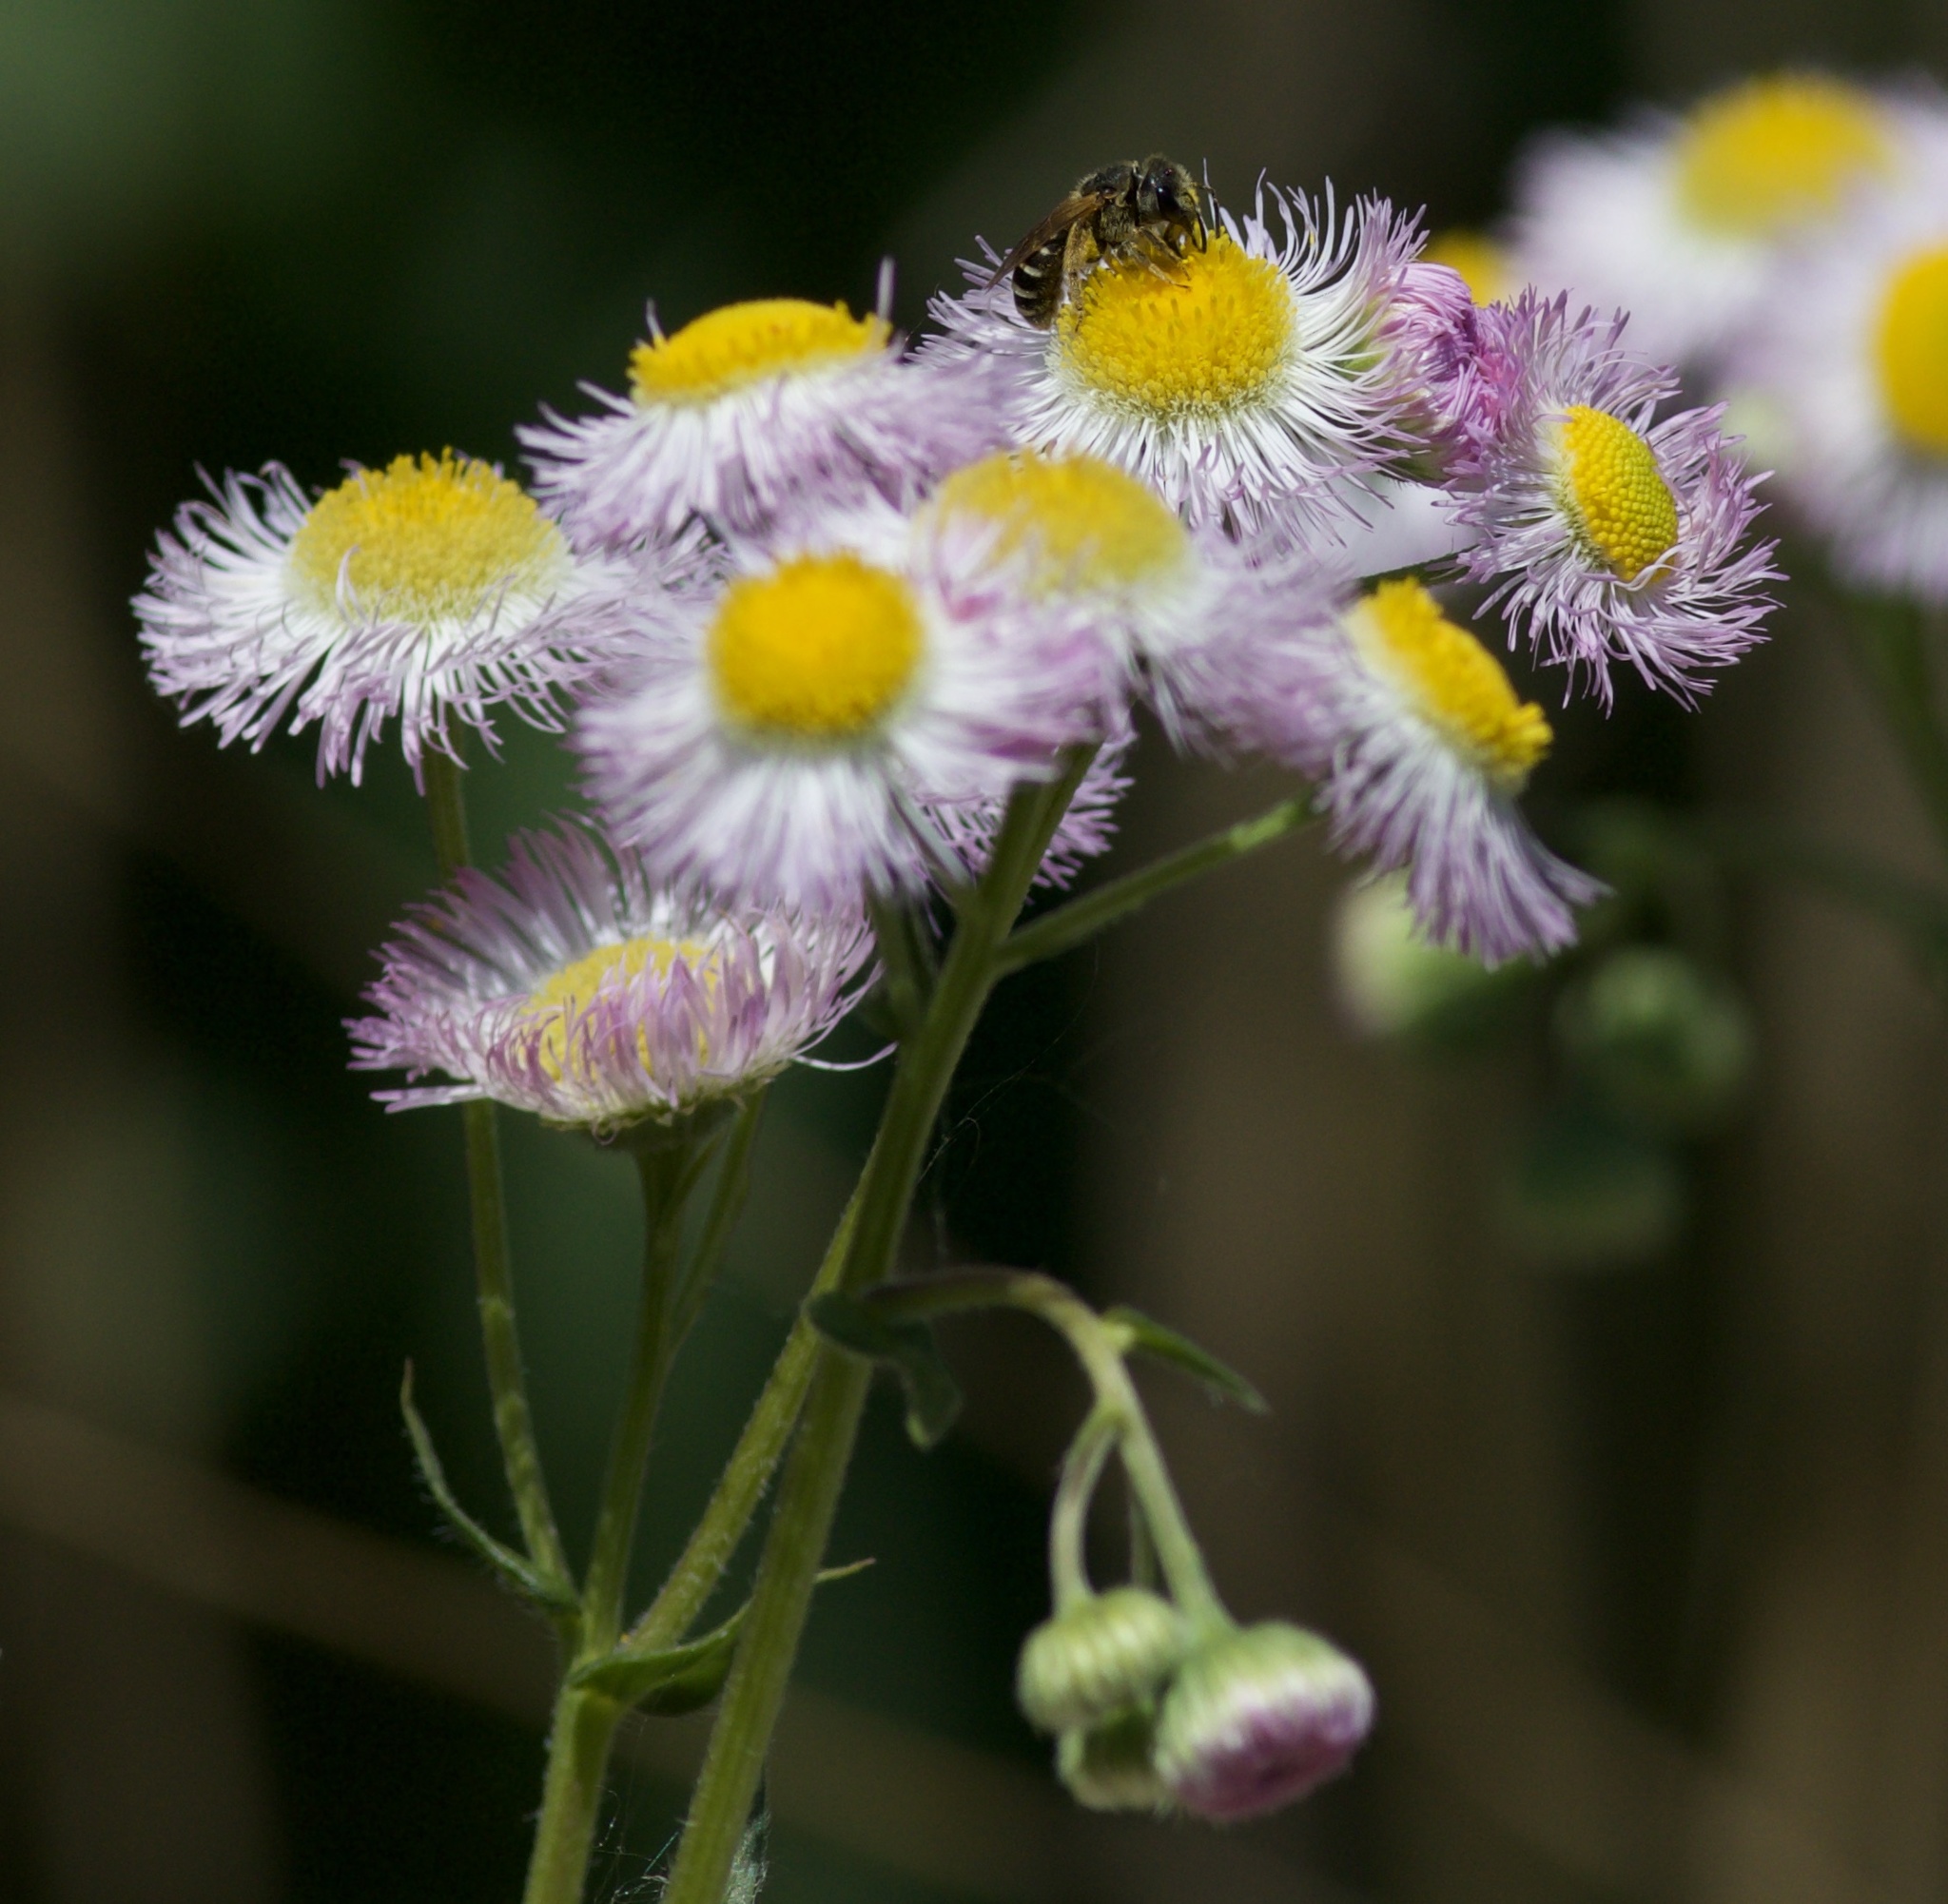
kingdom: Plantae
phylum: Tracheophyta
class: Magnoliopsida
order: Asterales
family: Asteraceae
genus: Erigeron
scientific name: Erigeron philadelphicus
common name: Robin's-plantain
